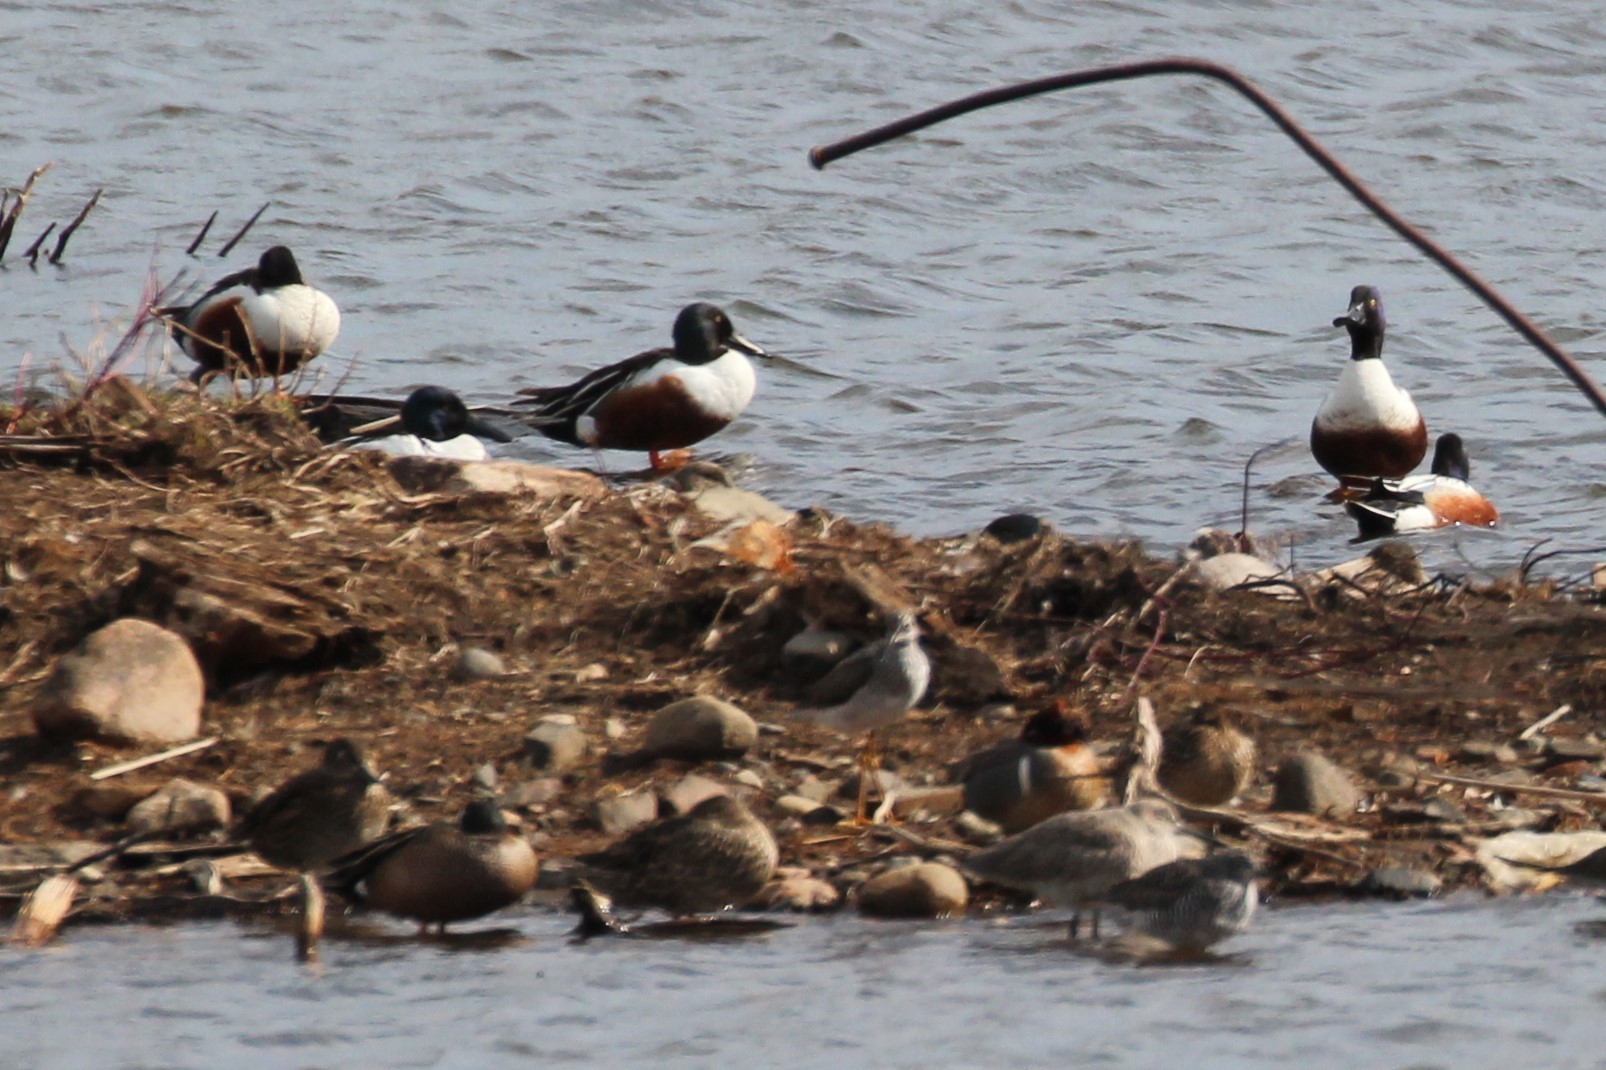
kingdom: Animalia
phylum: Chordata
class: Aves
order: Anseriformes
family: Anatidae
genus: Spatula
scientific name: Spatula clypeata
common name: Northern shoveler
